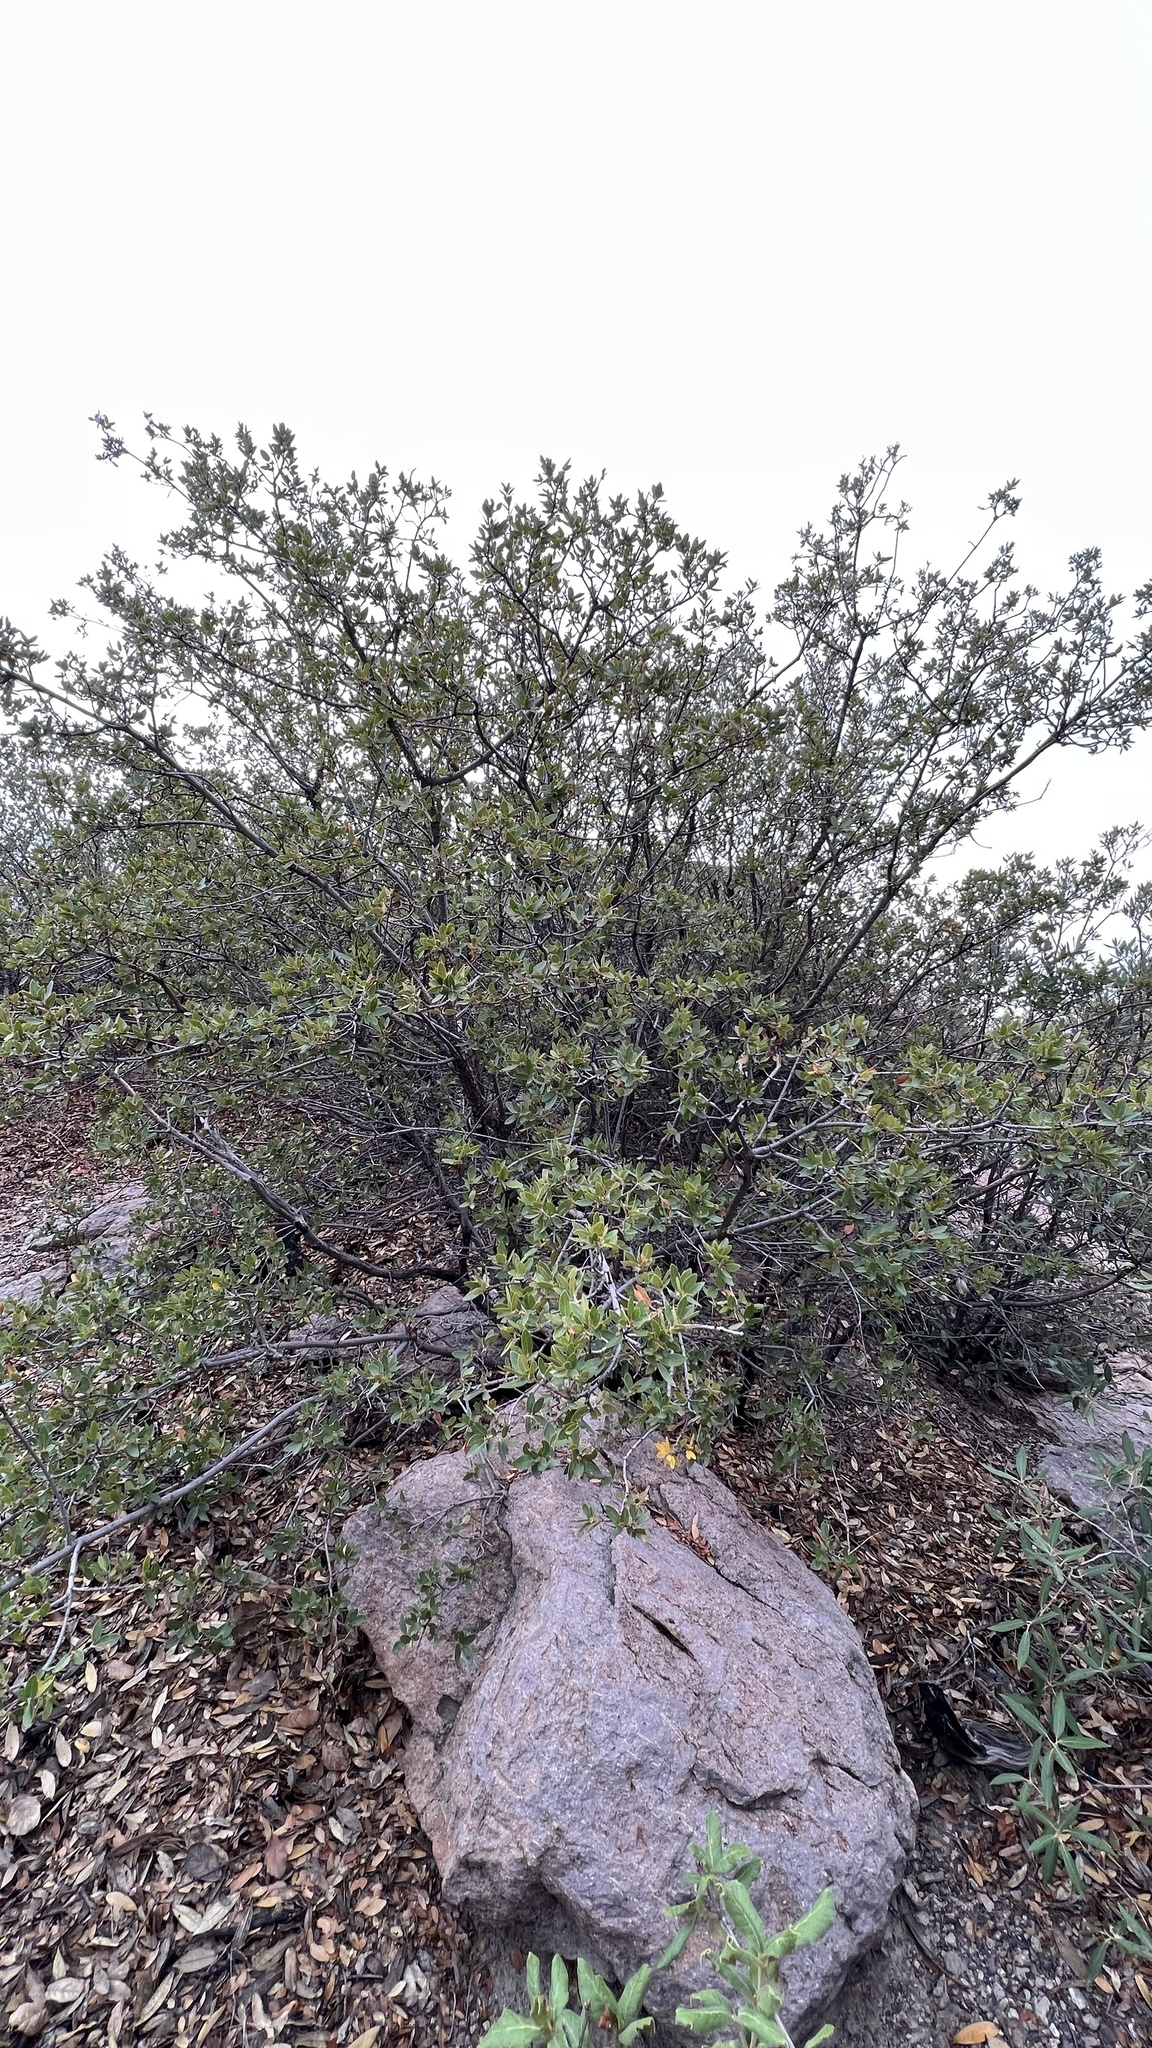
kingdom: Plantae
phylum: Tracheophyta
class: Magnoliopsida
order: Fagales
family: Fagaceae
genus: Quercus
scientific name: Quercus toumeyi
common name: Toumey oak
